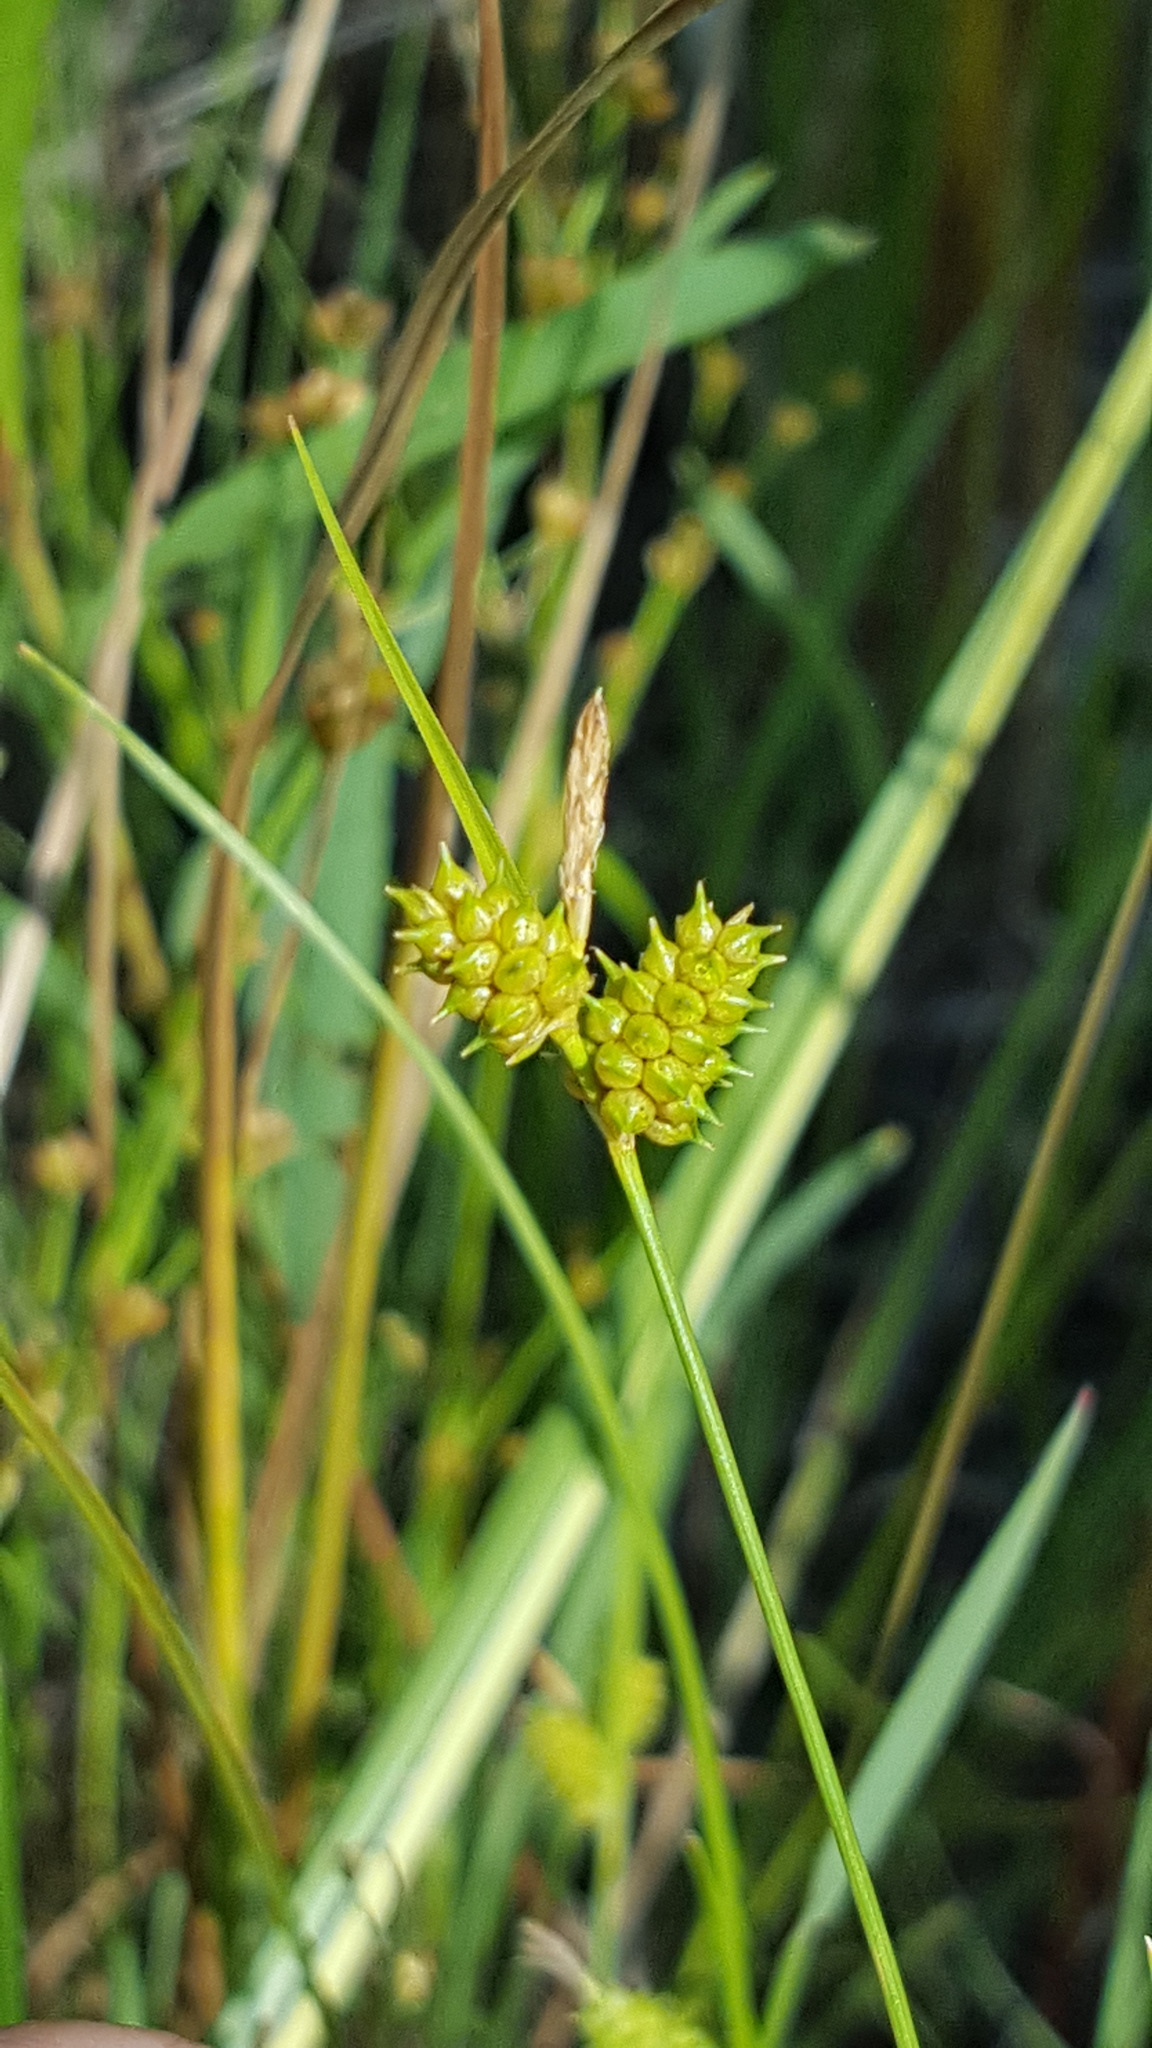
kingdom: Plantae
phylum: Tracheophyta
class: Liliopsida
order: Poales
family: Cyperaceae
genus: Carex
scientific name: Carex
